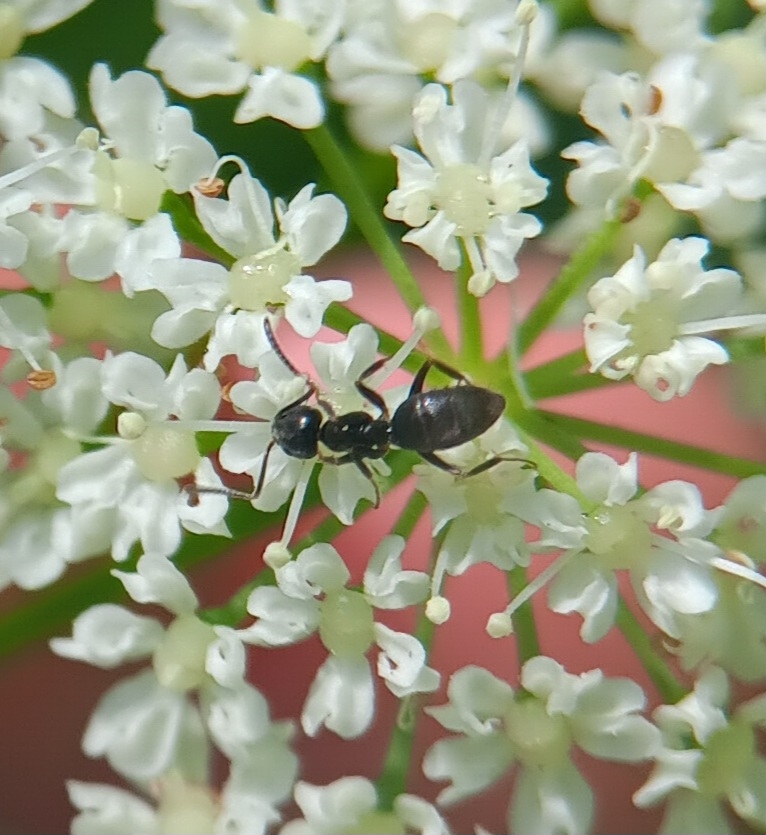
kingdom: Animalia
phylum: Arthropoda
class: Insecta
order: Hymenoptera
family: Formicidae
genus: Tapinoma
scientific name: Tapinoma sessile
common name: Odorous house ant
